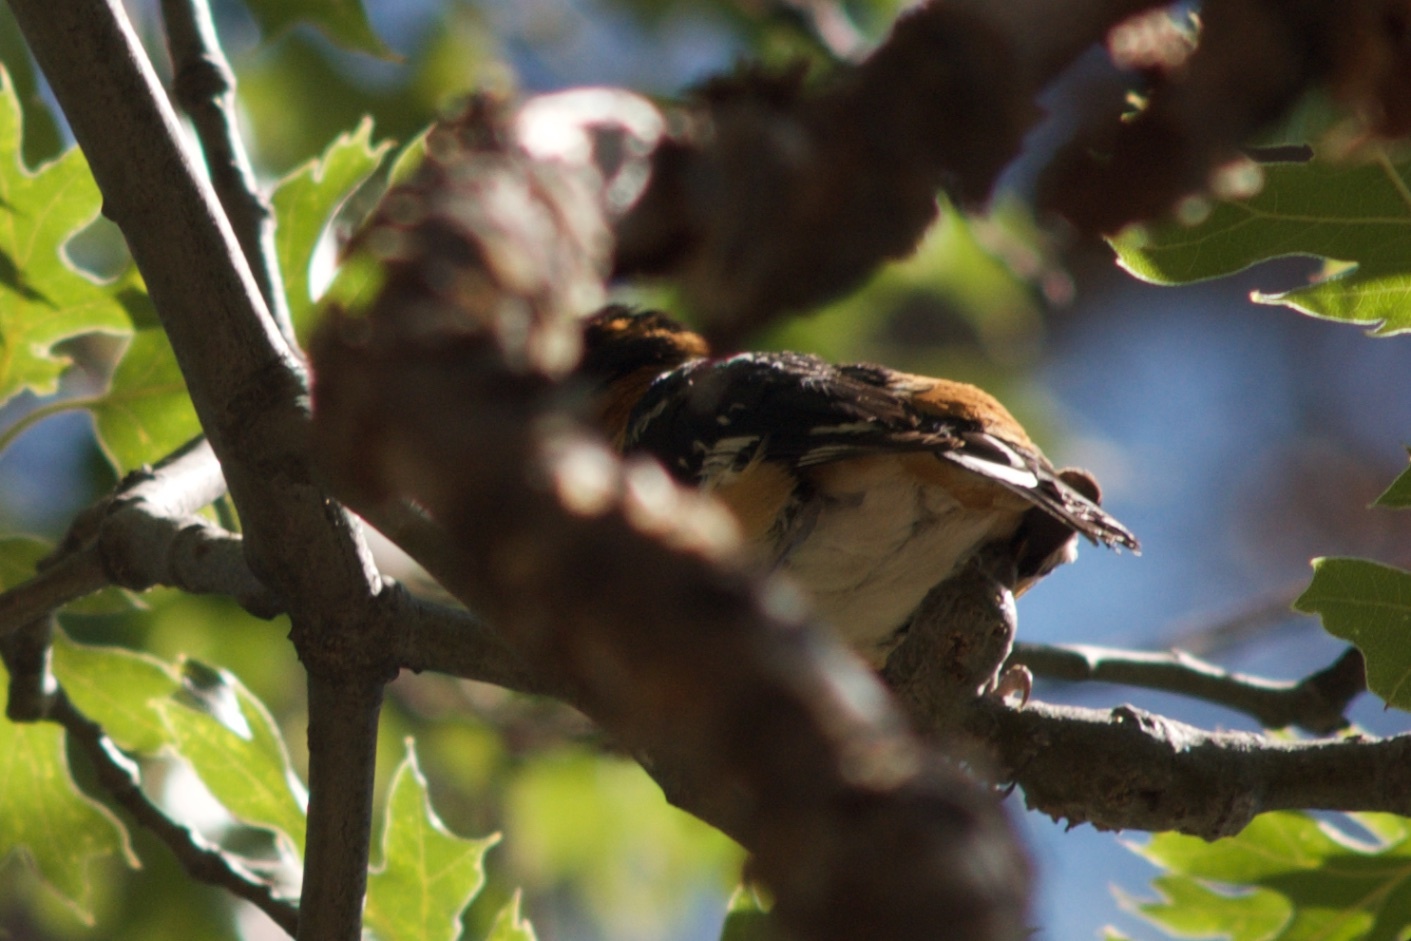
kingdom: Animalia
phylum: Chordata
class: Aves
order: Passeriformes
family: Cardinalidae
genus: Pheucticus
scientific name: Pheucticus melanocephalus
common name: Black-headed grosbeak
